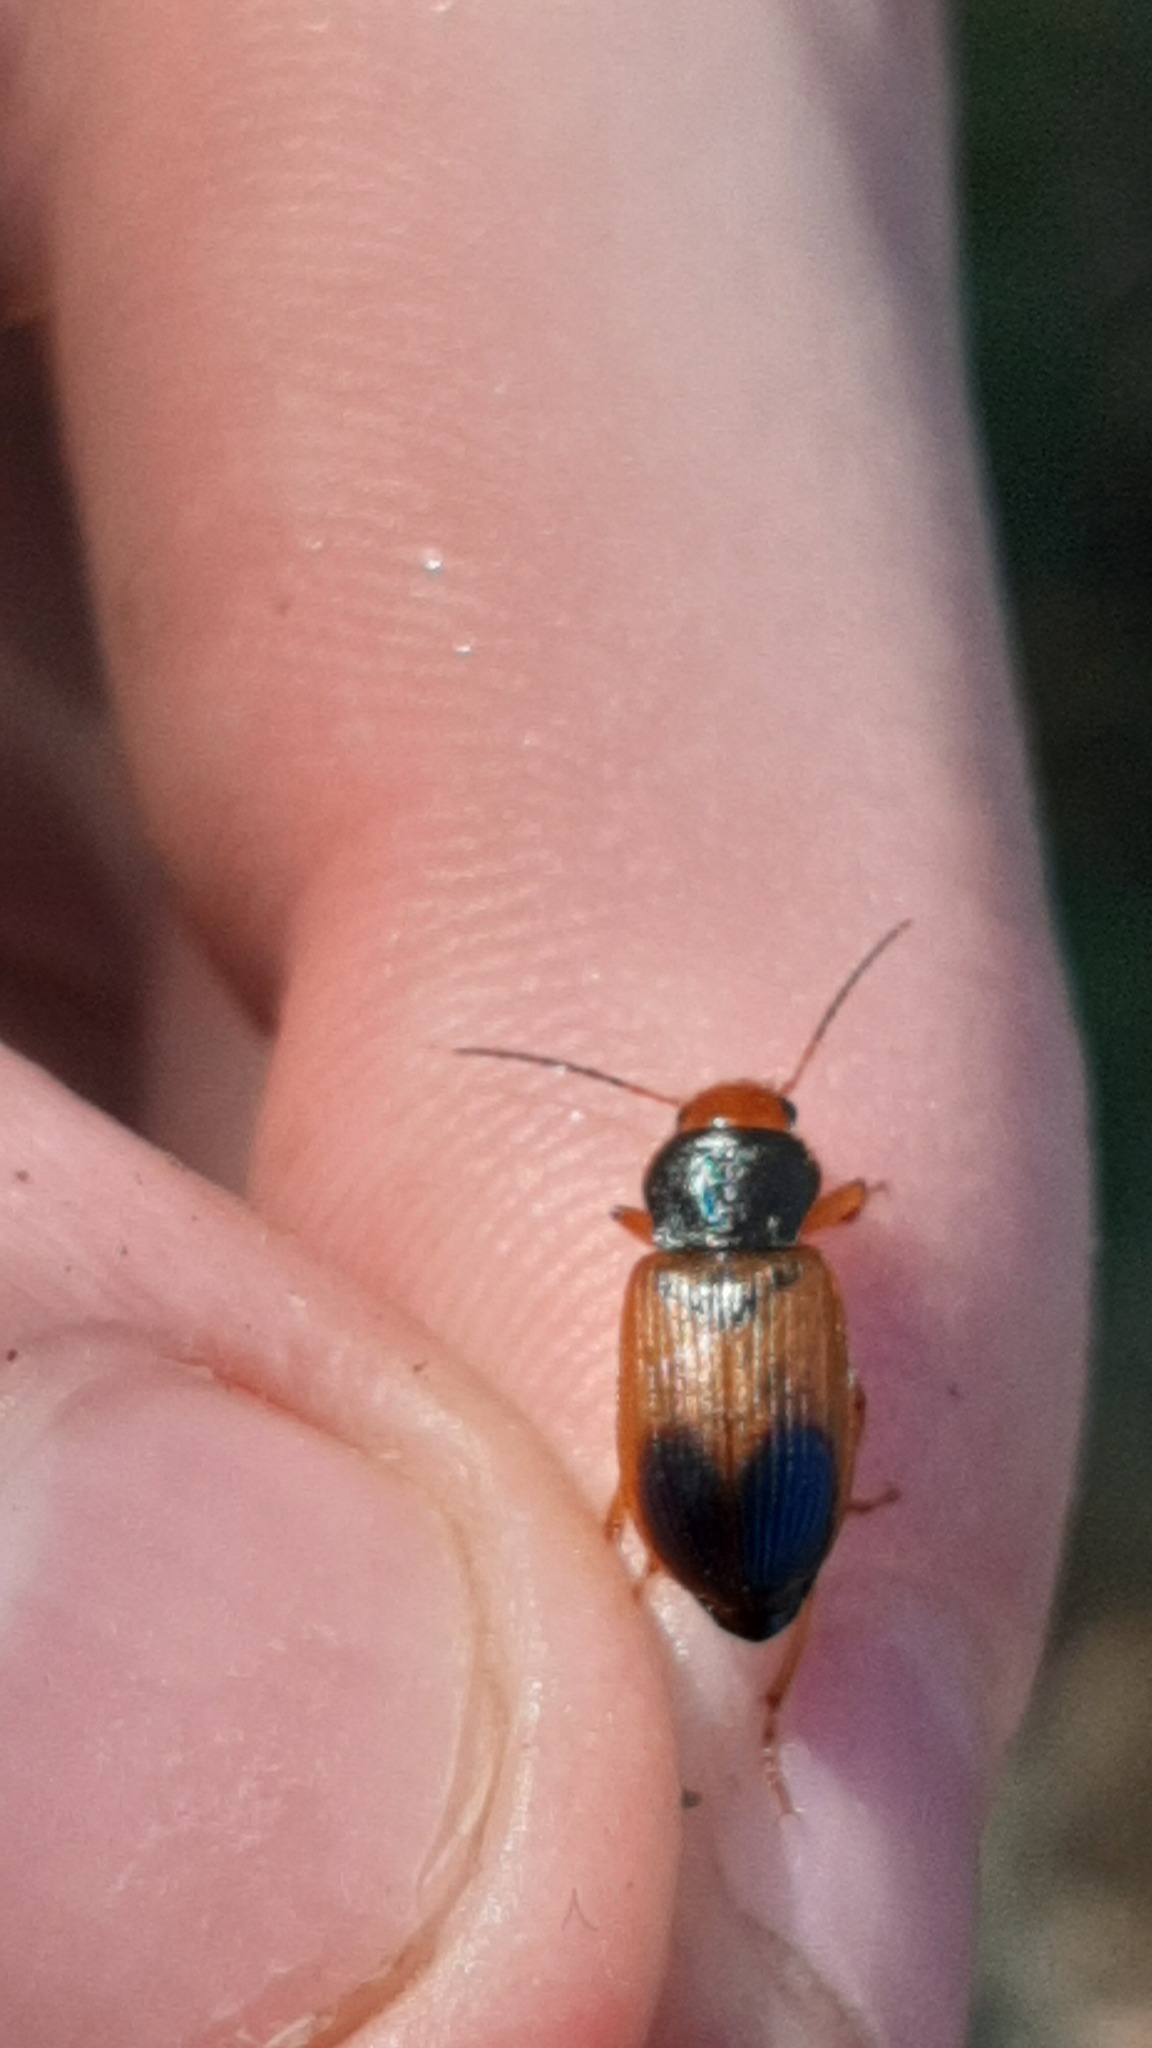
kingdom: Animalia
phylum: Arthropoda
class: Insecta
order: Coleoptera
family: Carabidae
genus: Diachromus
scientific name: Diachromus germanus
